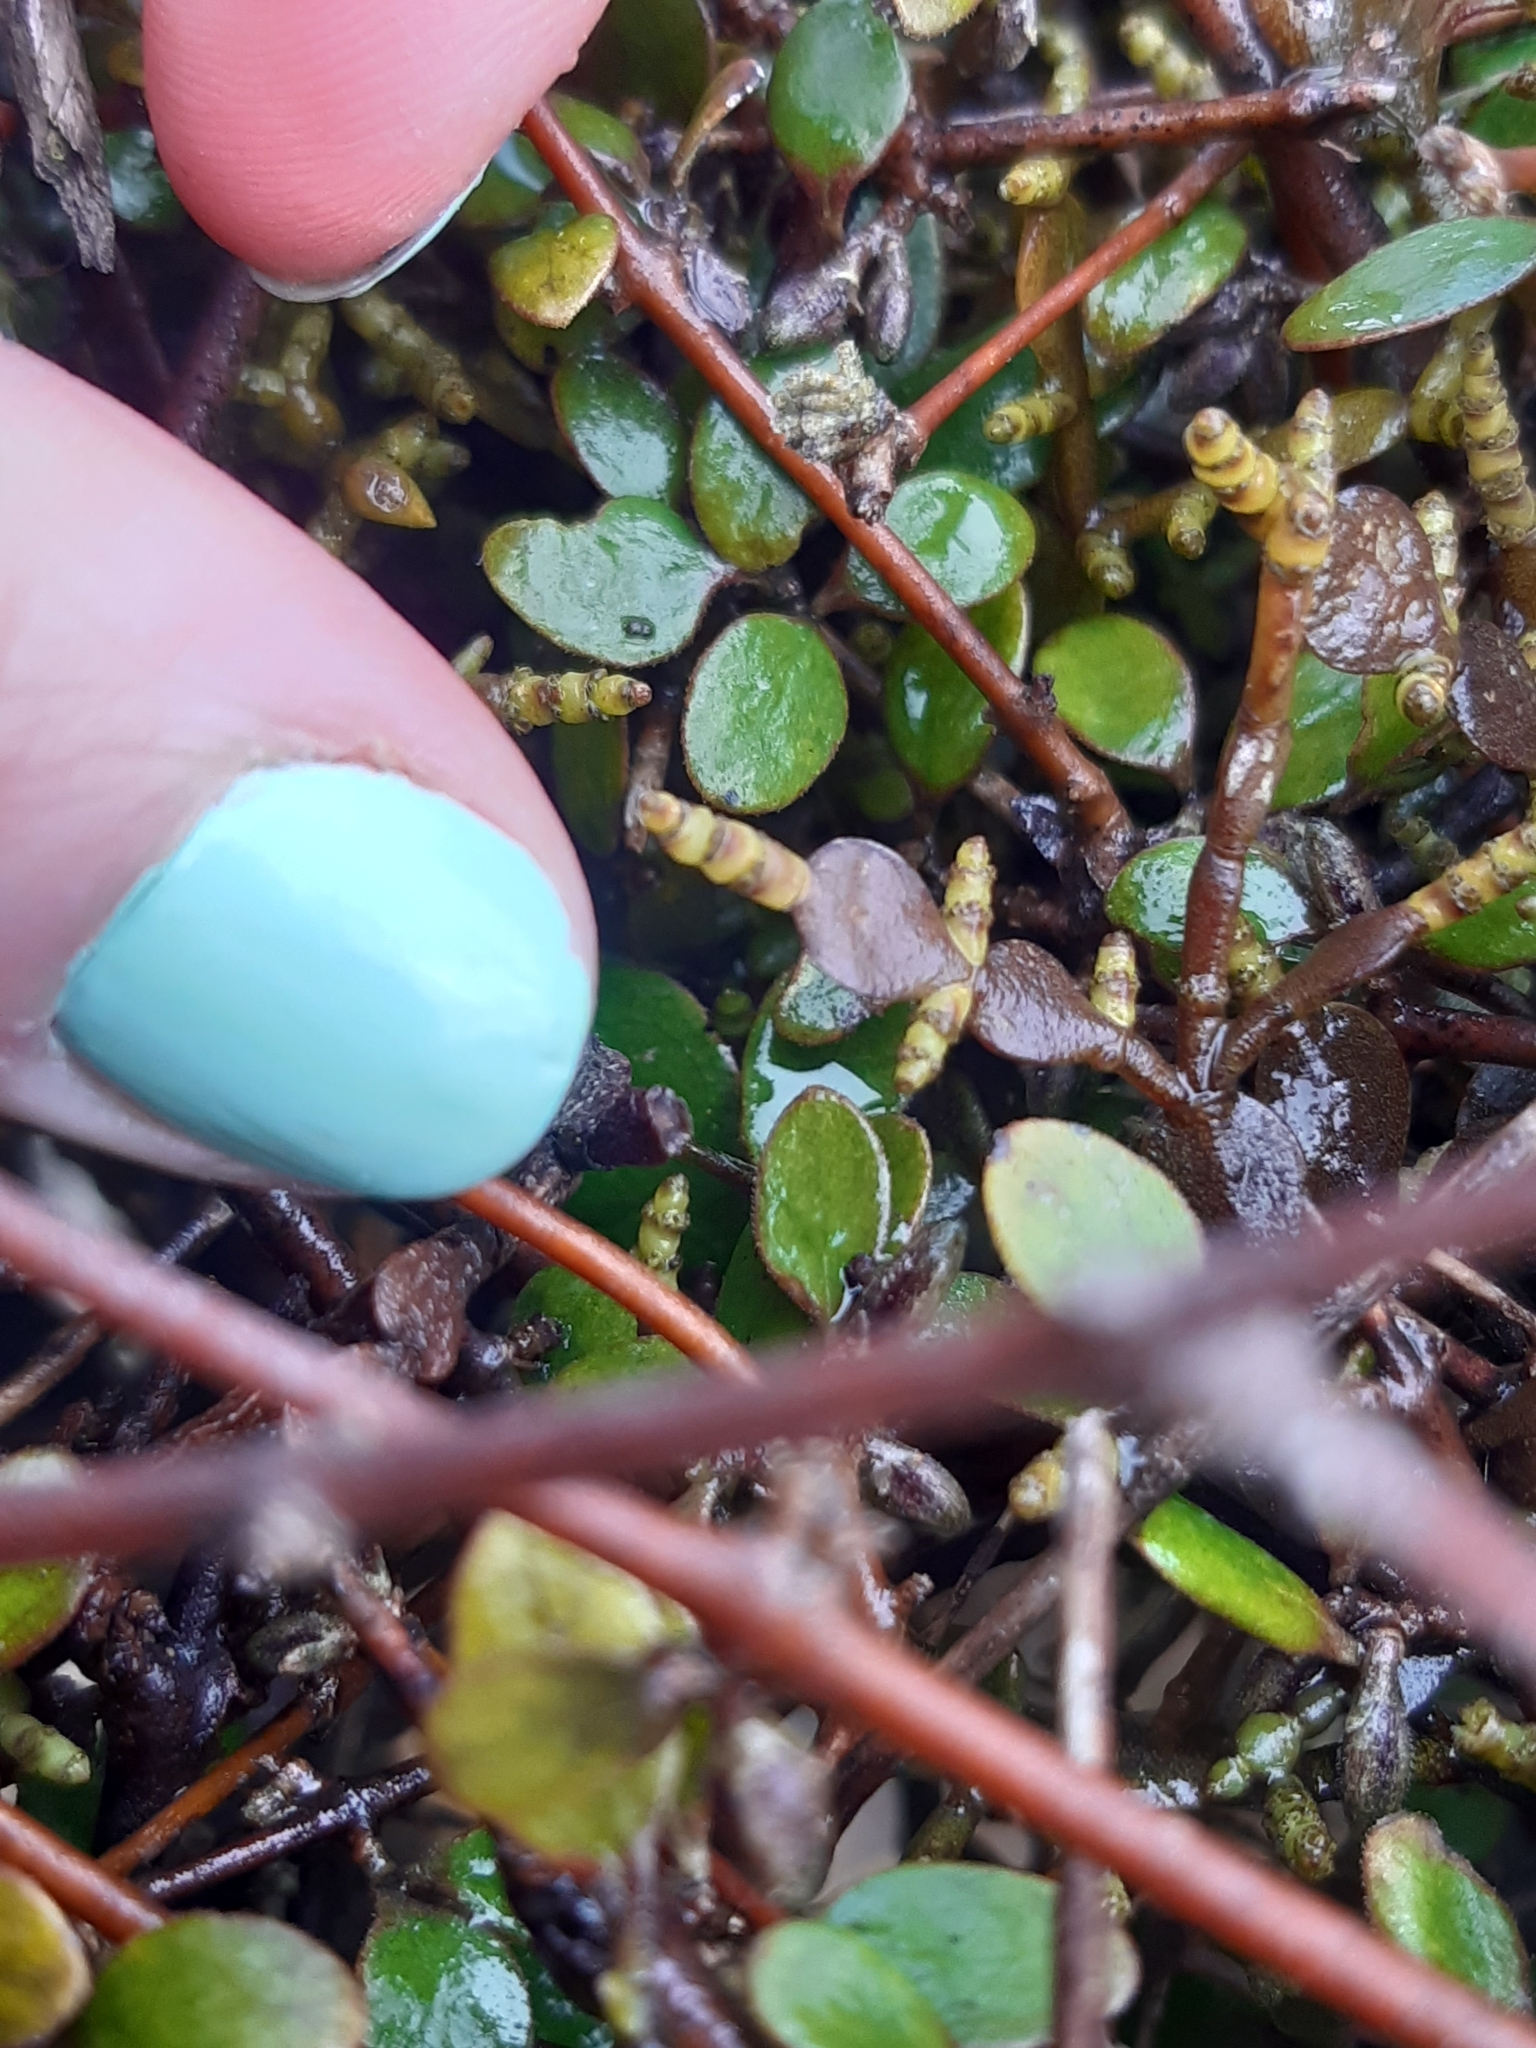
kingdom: Plantae
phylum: Tracheophyta
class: Magnoliopsida
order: Santalales
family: Viscaceae
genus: Korthalsella
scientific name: Korthalsella lindsayi
